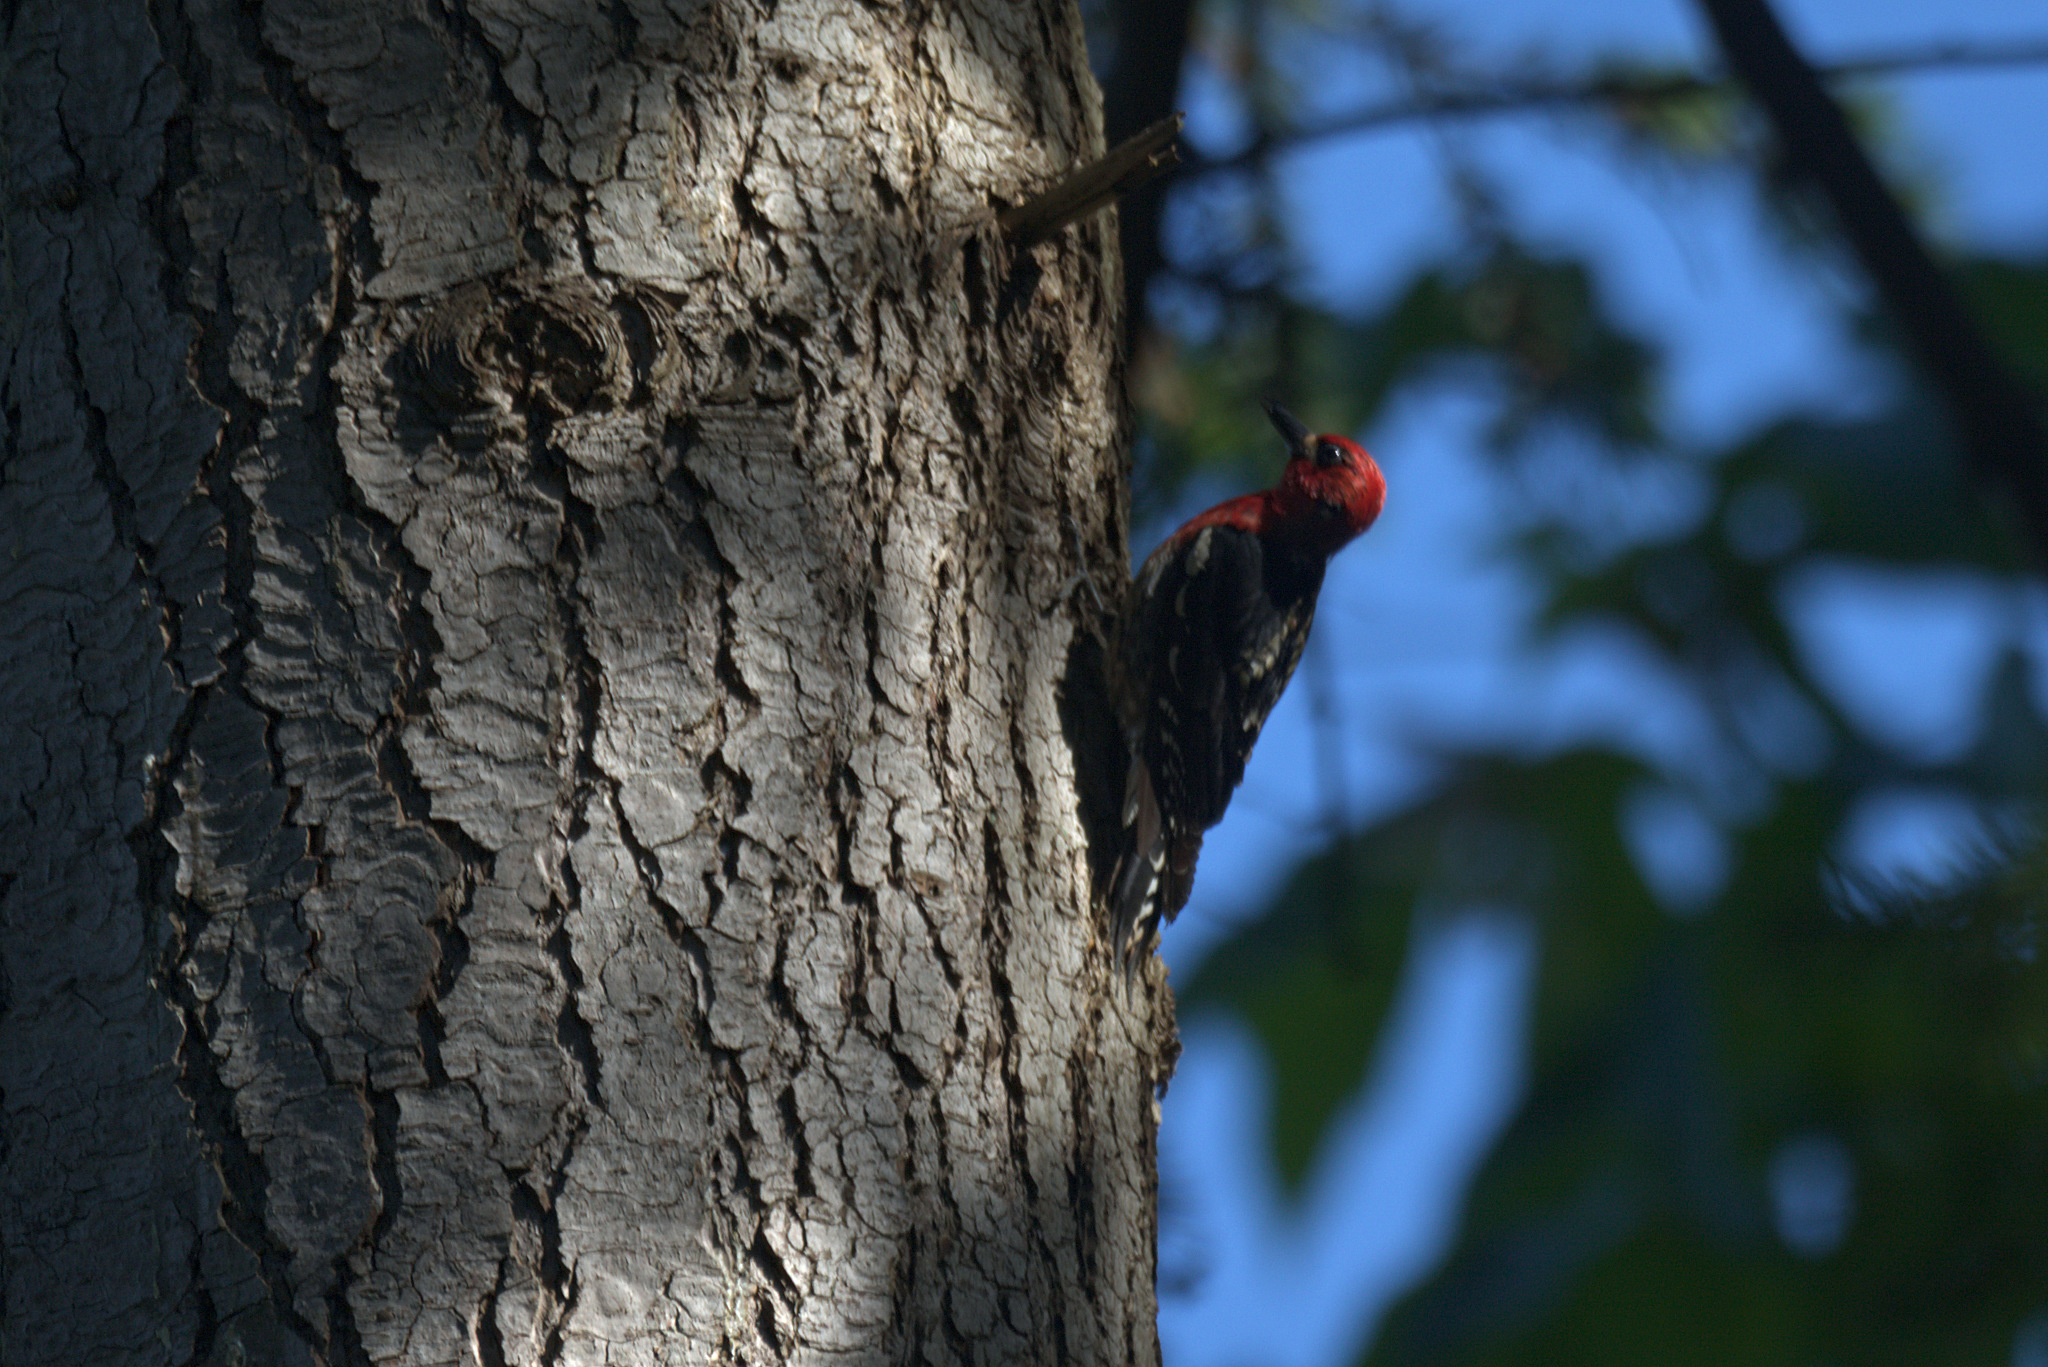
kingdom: Animalia
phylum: Chordata
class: Aves
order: Piciformes
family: Picidae
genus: Sphyrapicus
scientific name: Sphyrapicus ruber
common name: Red-breasted sapsucker
